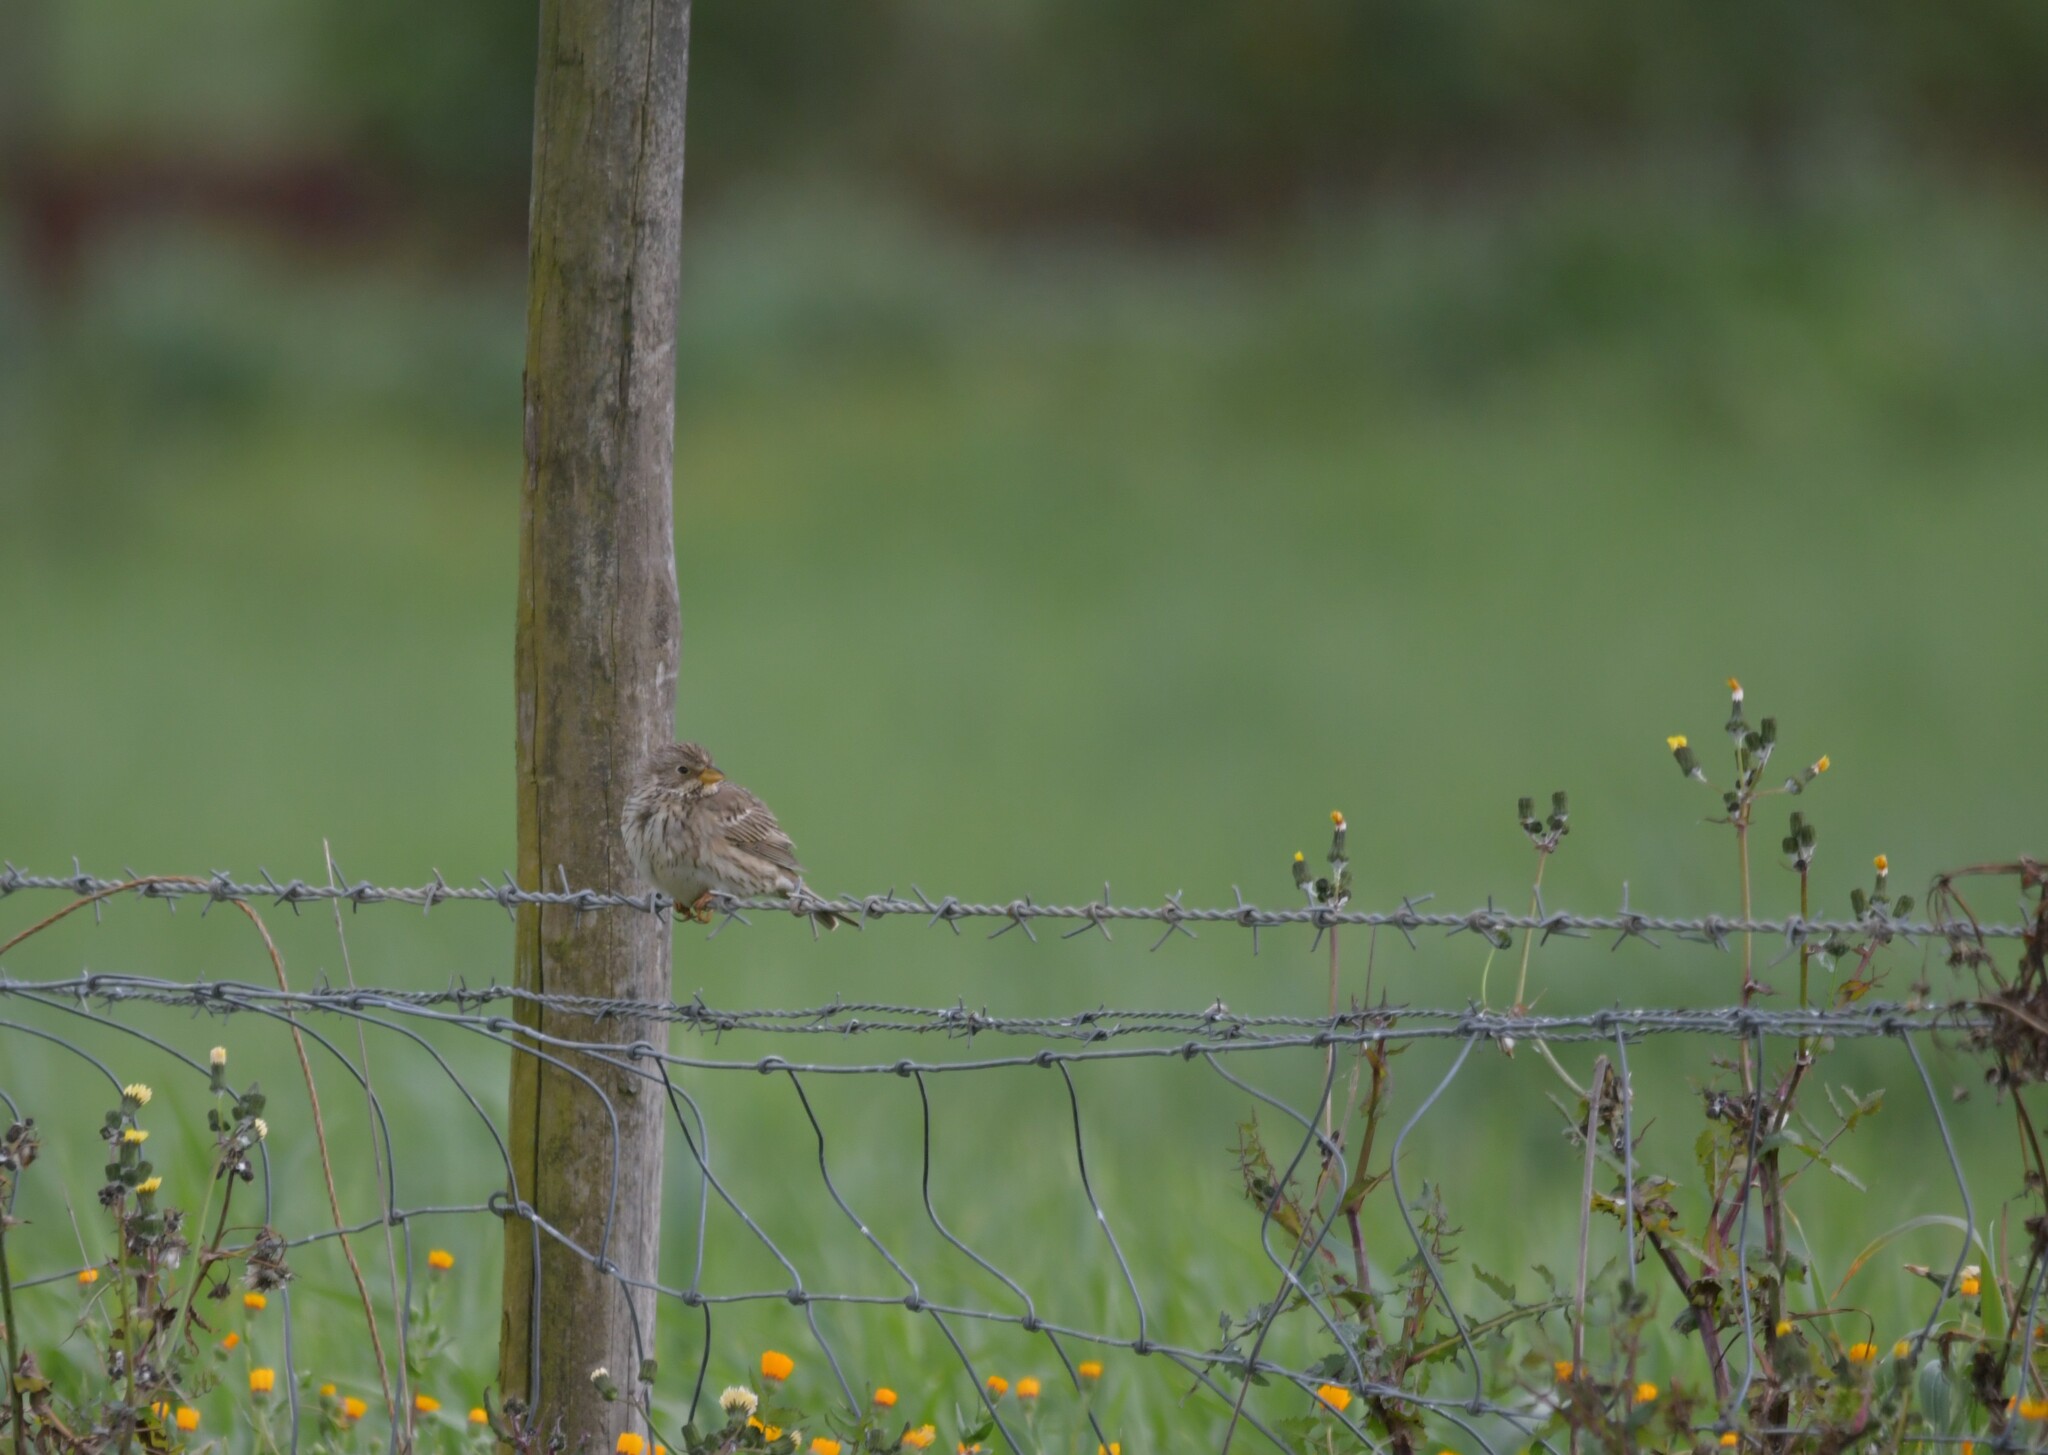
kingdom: Animalia
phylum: Chordata
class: Aves
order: Passeriformes
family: Emberizidae
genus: Emberiza
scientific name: Emberiza calandra
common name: Corn bunting
